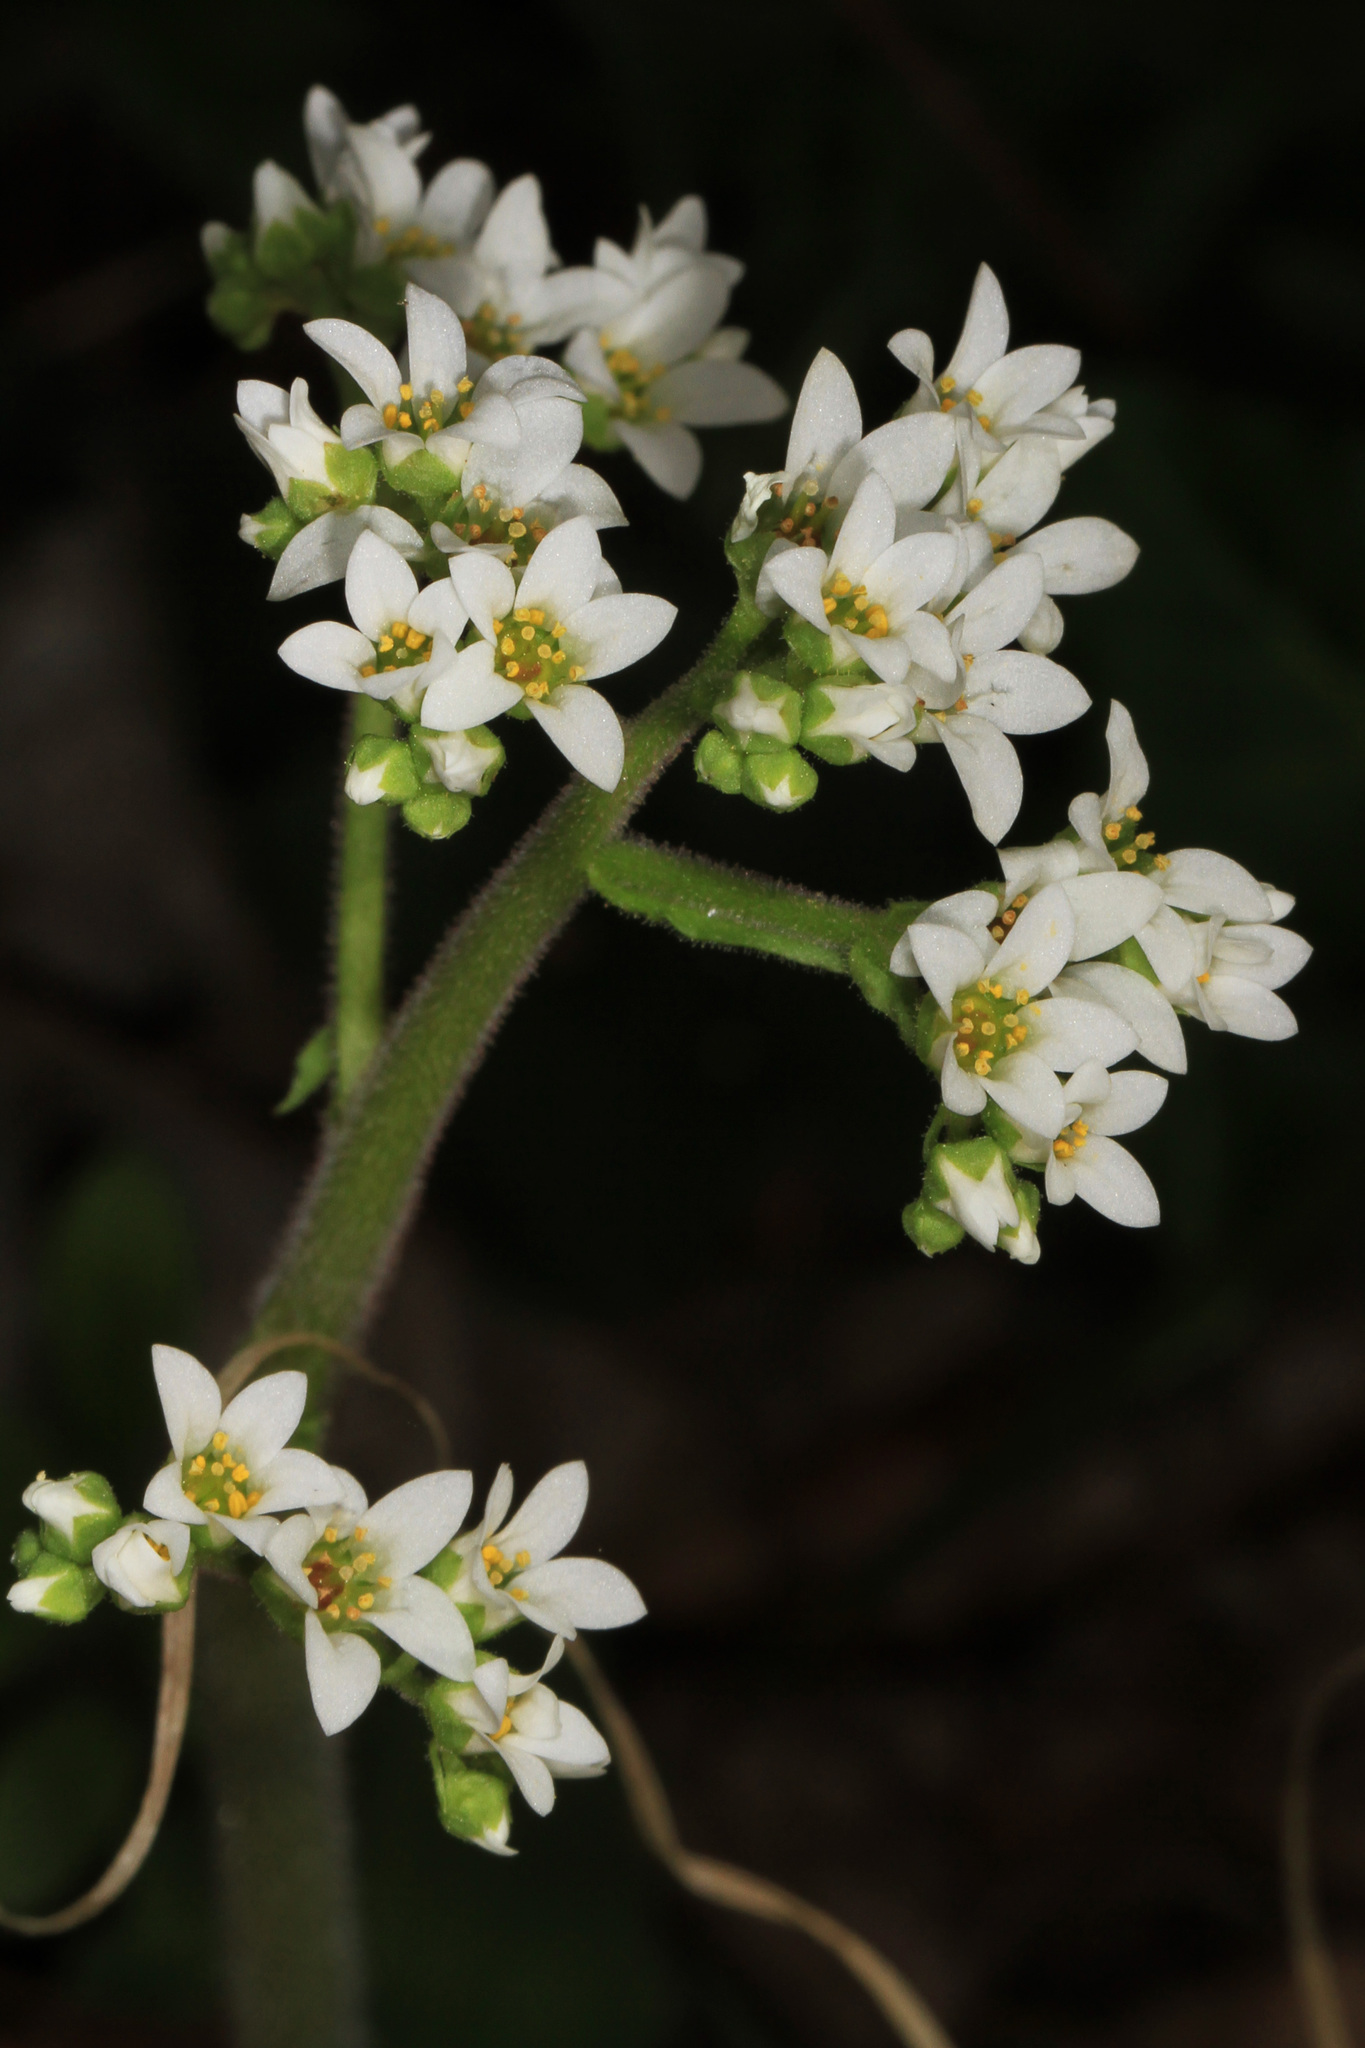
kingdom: Plantae
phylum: Tracheophyta
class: Magnoliopsida
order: Saxifragales
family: Saxifragaceae
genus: Micranthes
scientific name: Micranthes virginiensis
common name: Early saxifrage
